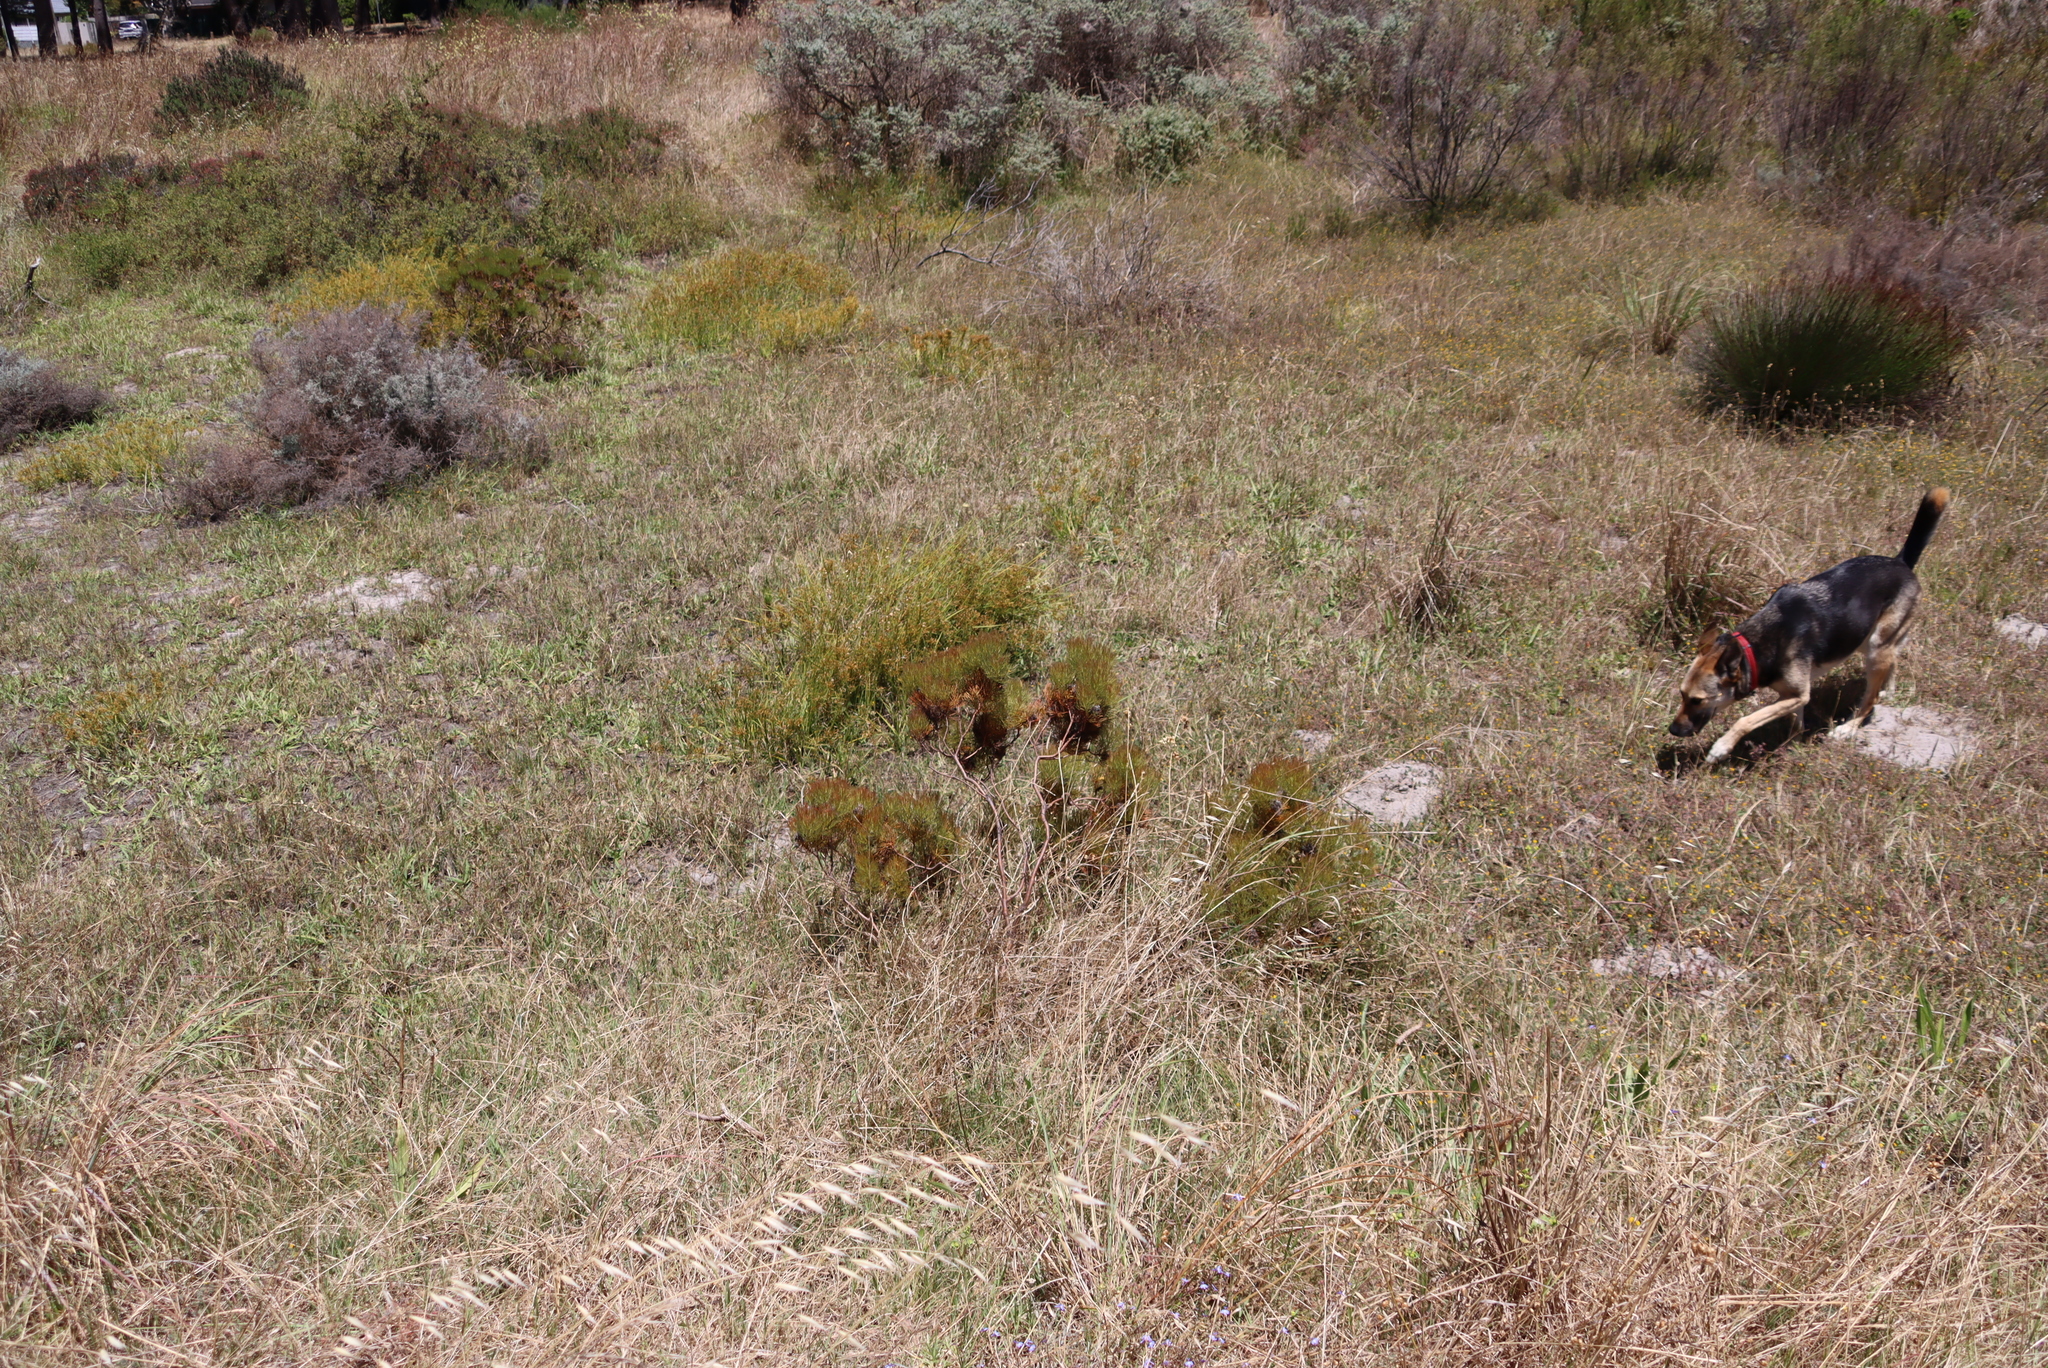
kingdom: Plantae
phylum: Tracheophyta
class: Magnoliopsida
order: Proteales
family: Proteaceae
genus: Serruria
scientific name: Serruria glomerata
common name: Cluster spiderhead
